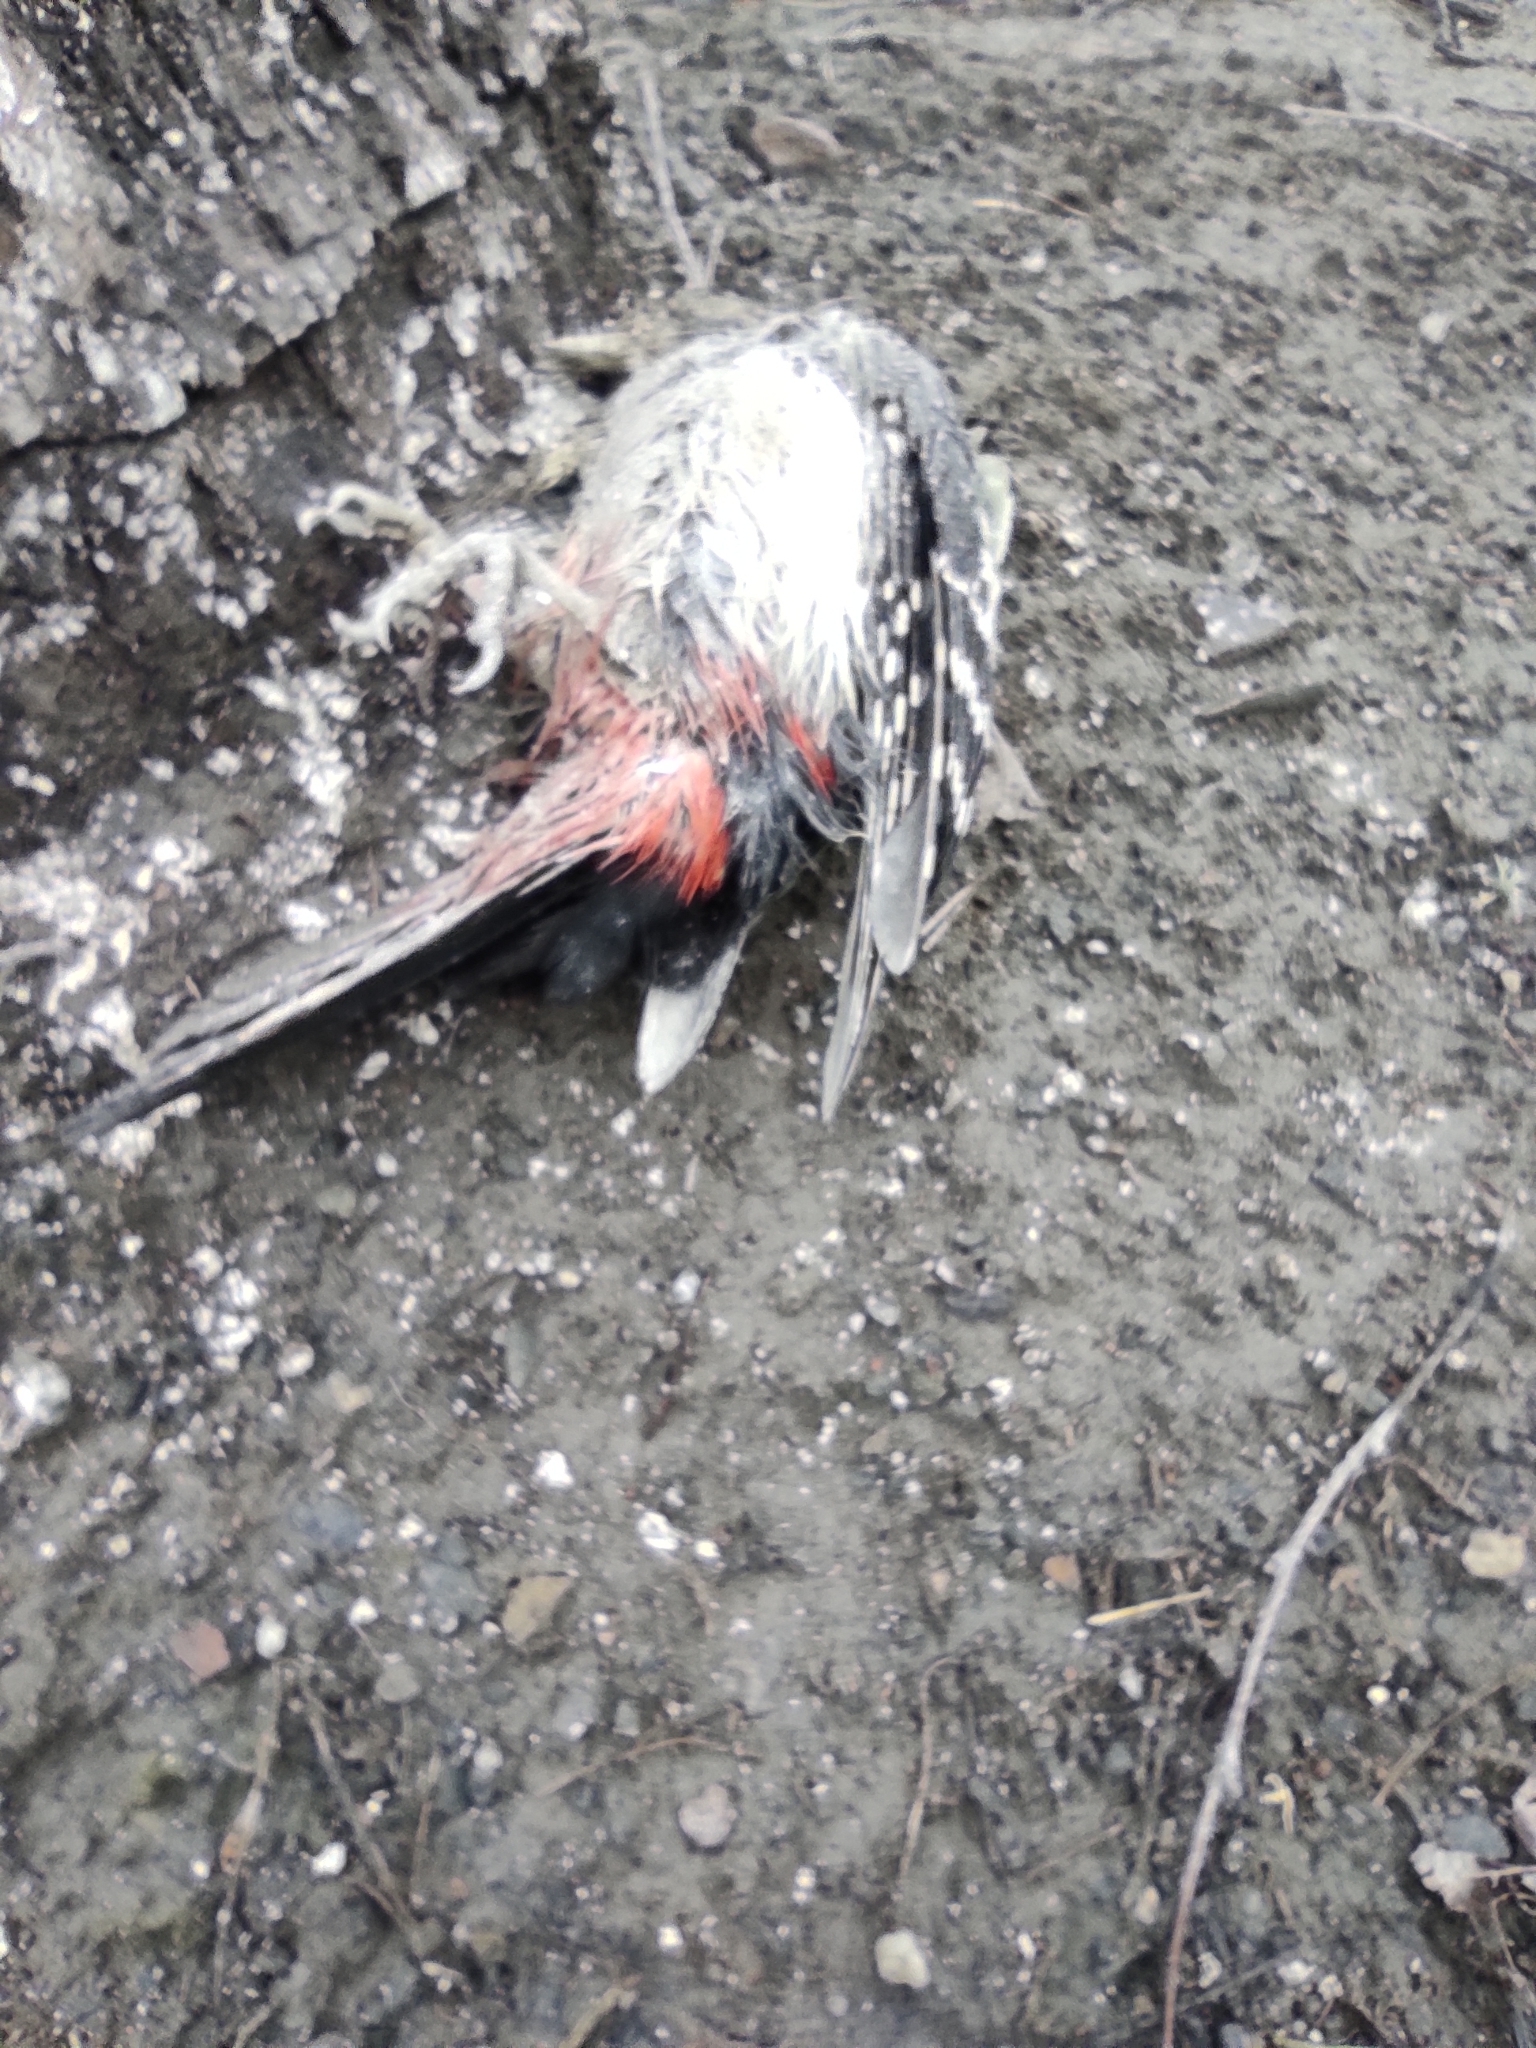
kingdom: Animalia
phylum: Chordata
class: Aves
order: Piciformes
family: Picidae
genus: Dendrocopos
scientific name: Dendrocopos major
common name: Great spotted woodpecker
